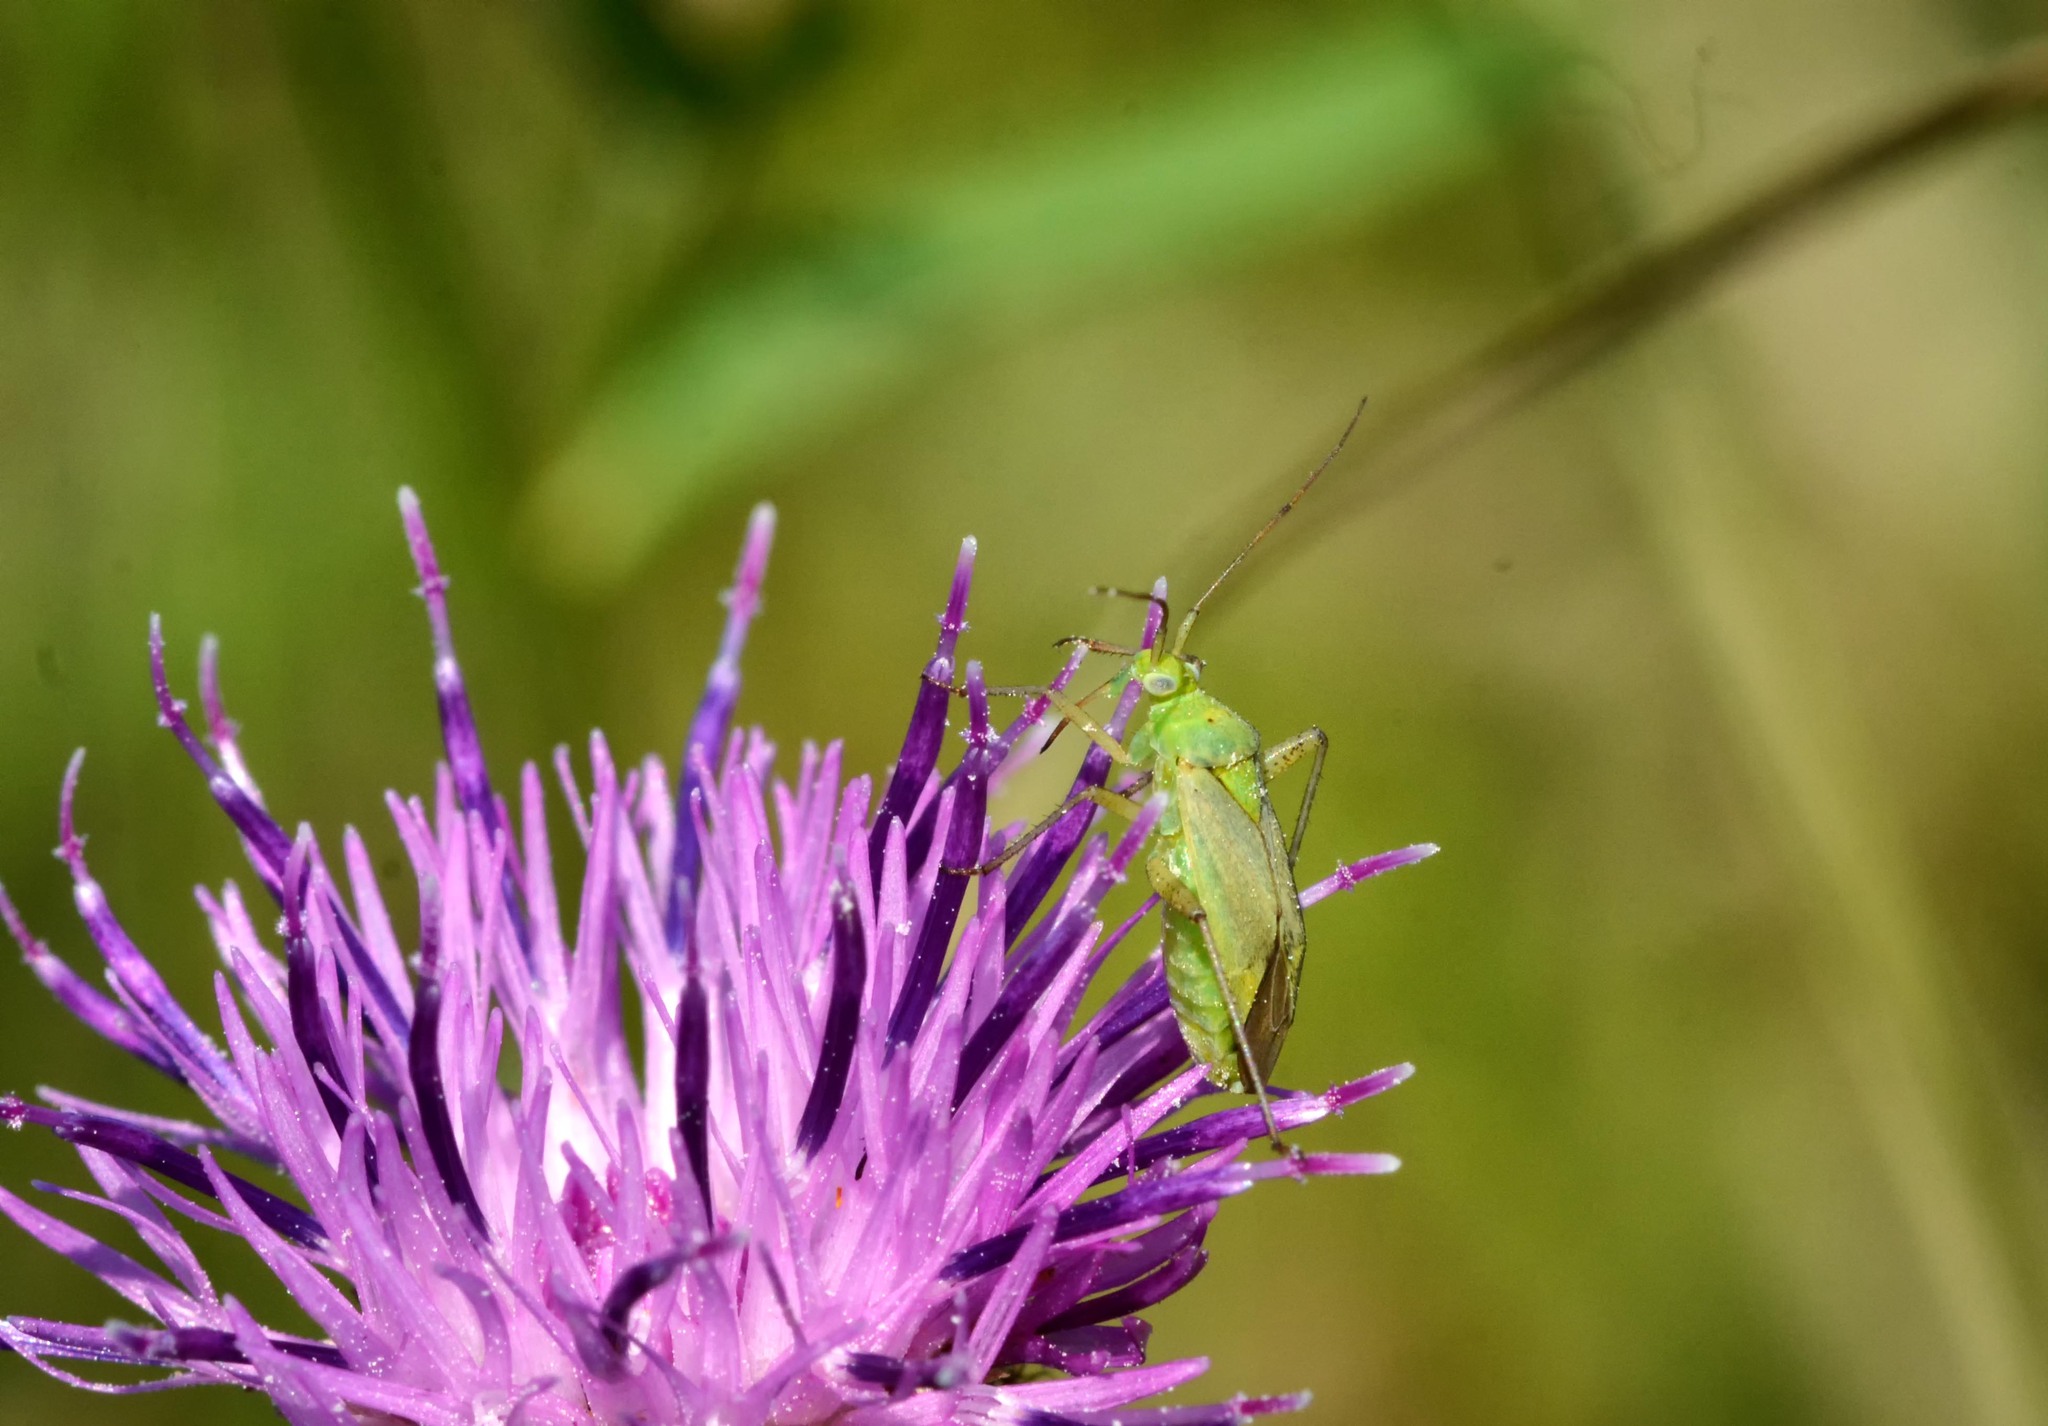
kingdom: Animalia
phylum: Arthropoda
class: Insecta
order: Hemiptera
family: Miridae
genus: Closterotomus
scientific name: Closterotomus norvegicus
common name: Plant bug
